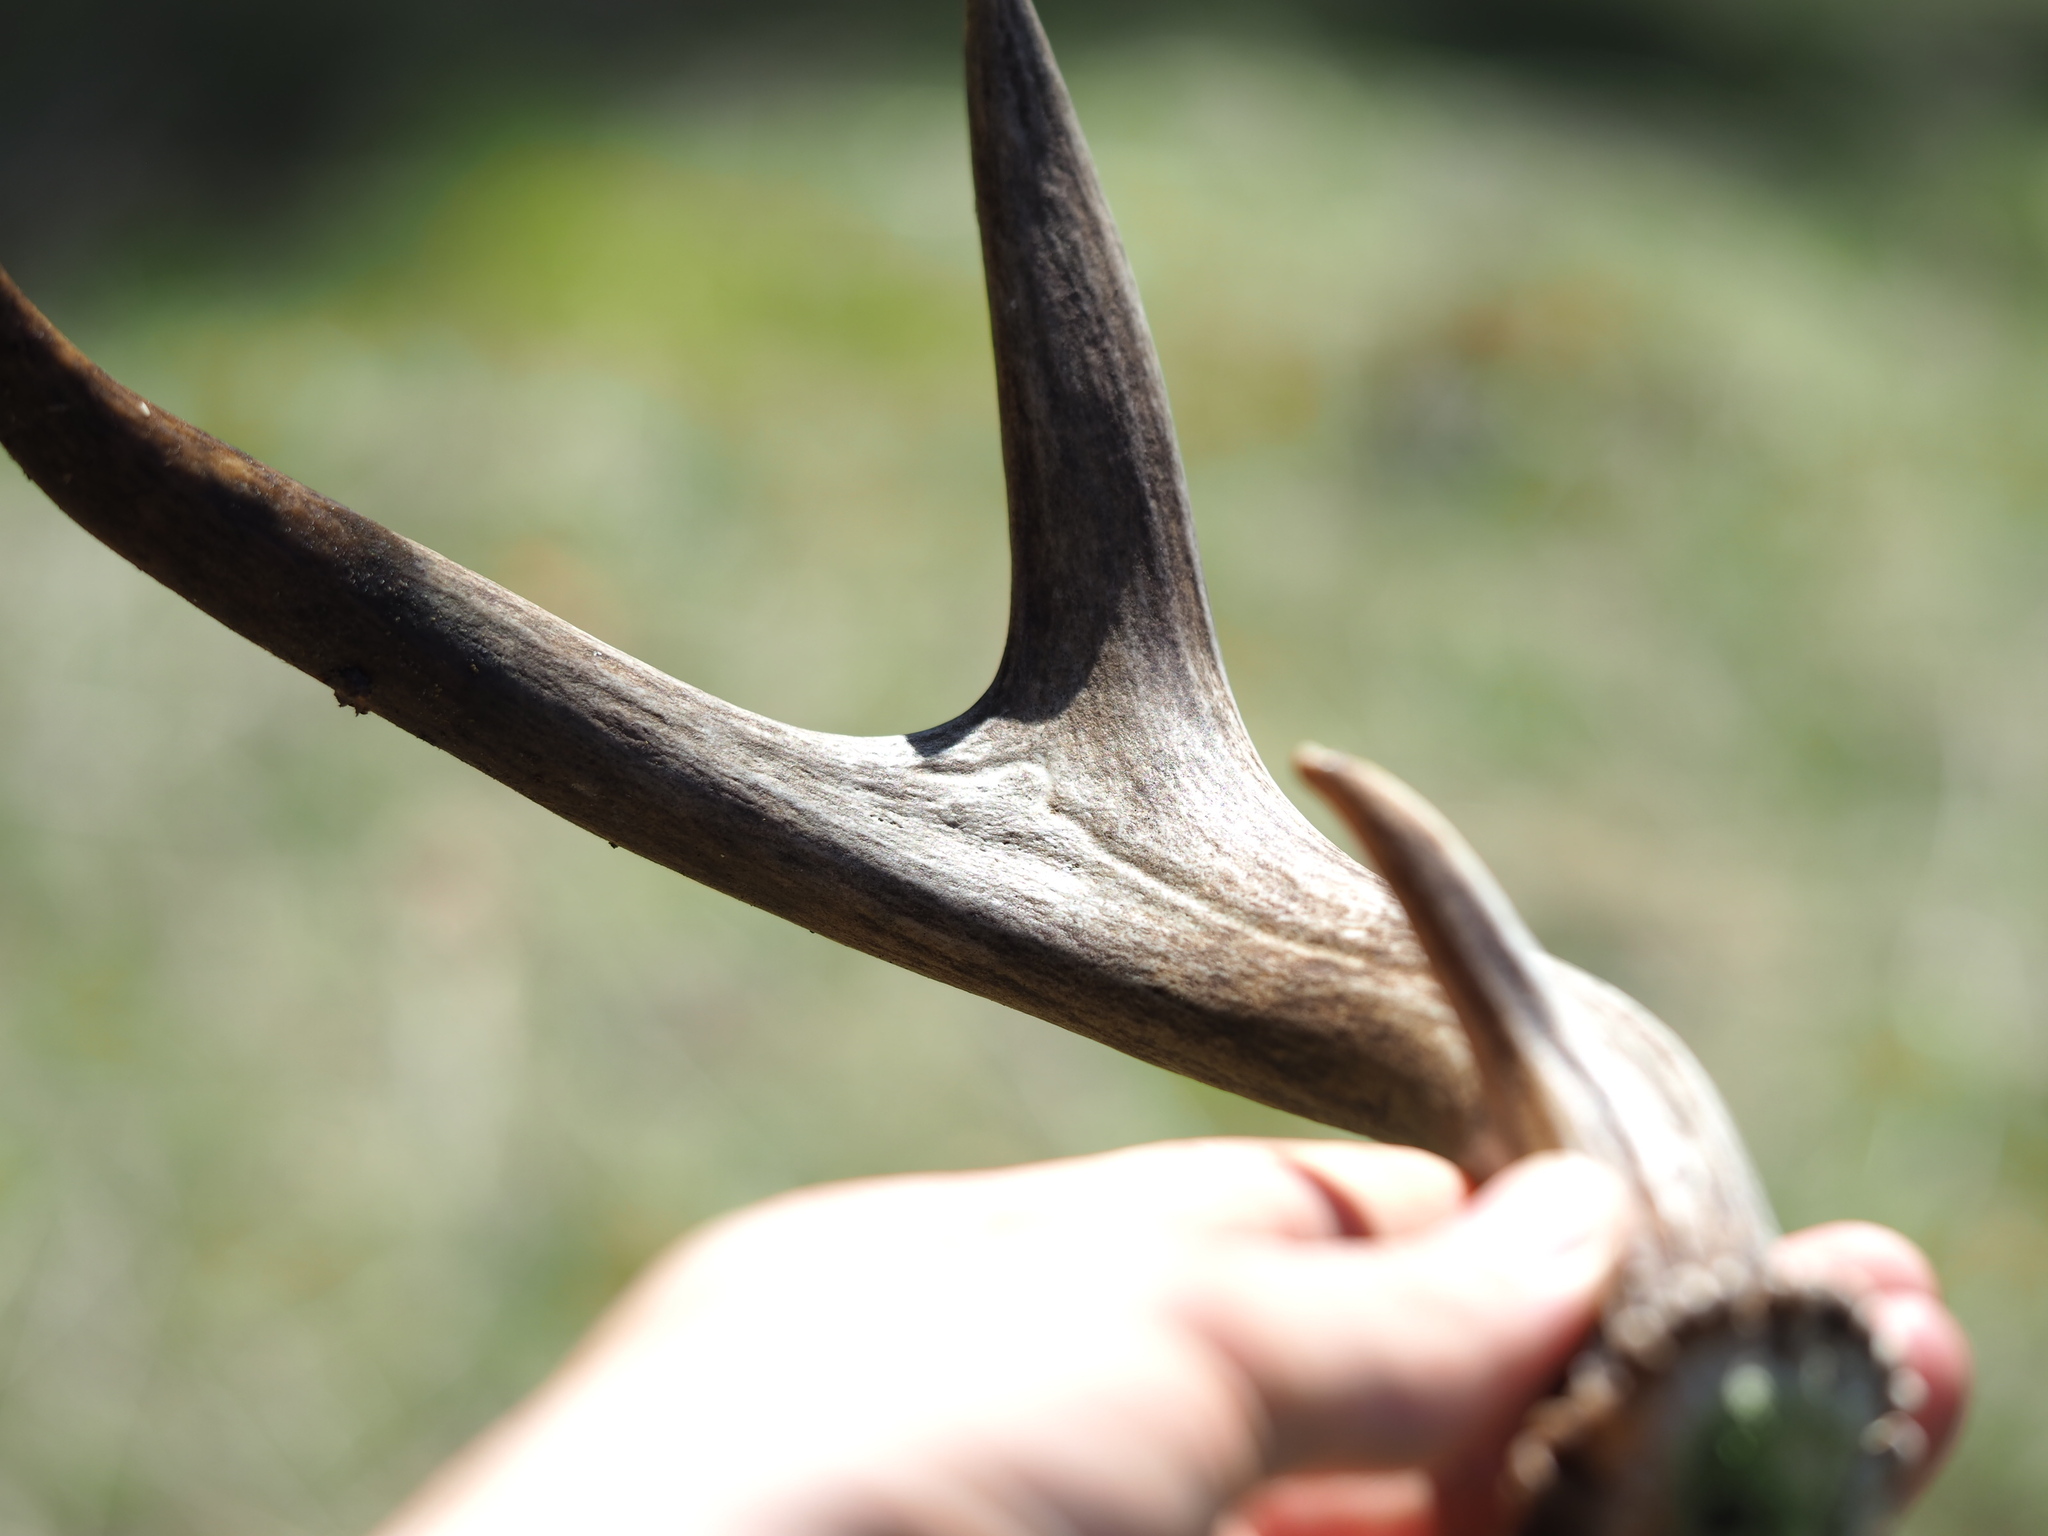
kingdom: Animalia
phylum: Chordata
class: Mammalia
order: Artiodactyla
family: Cervidae
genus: Odocoileus
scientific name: Odocoileus hemionus
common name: Mule deer
